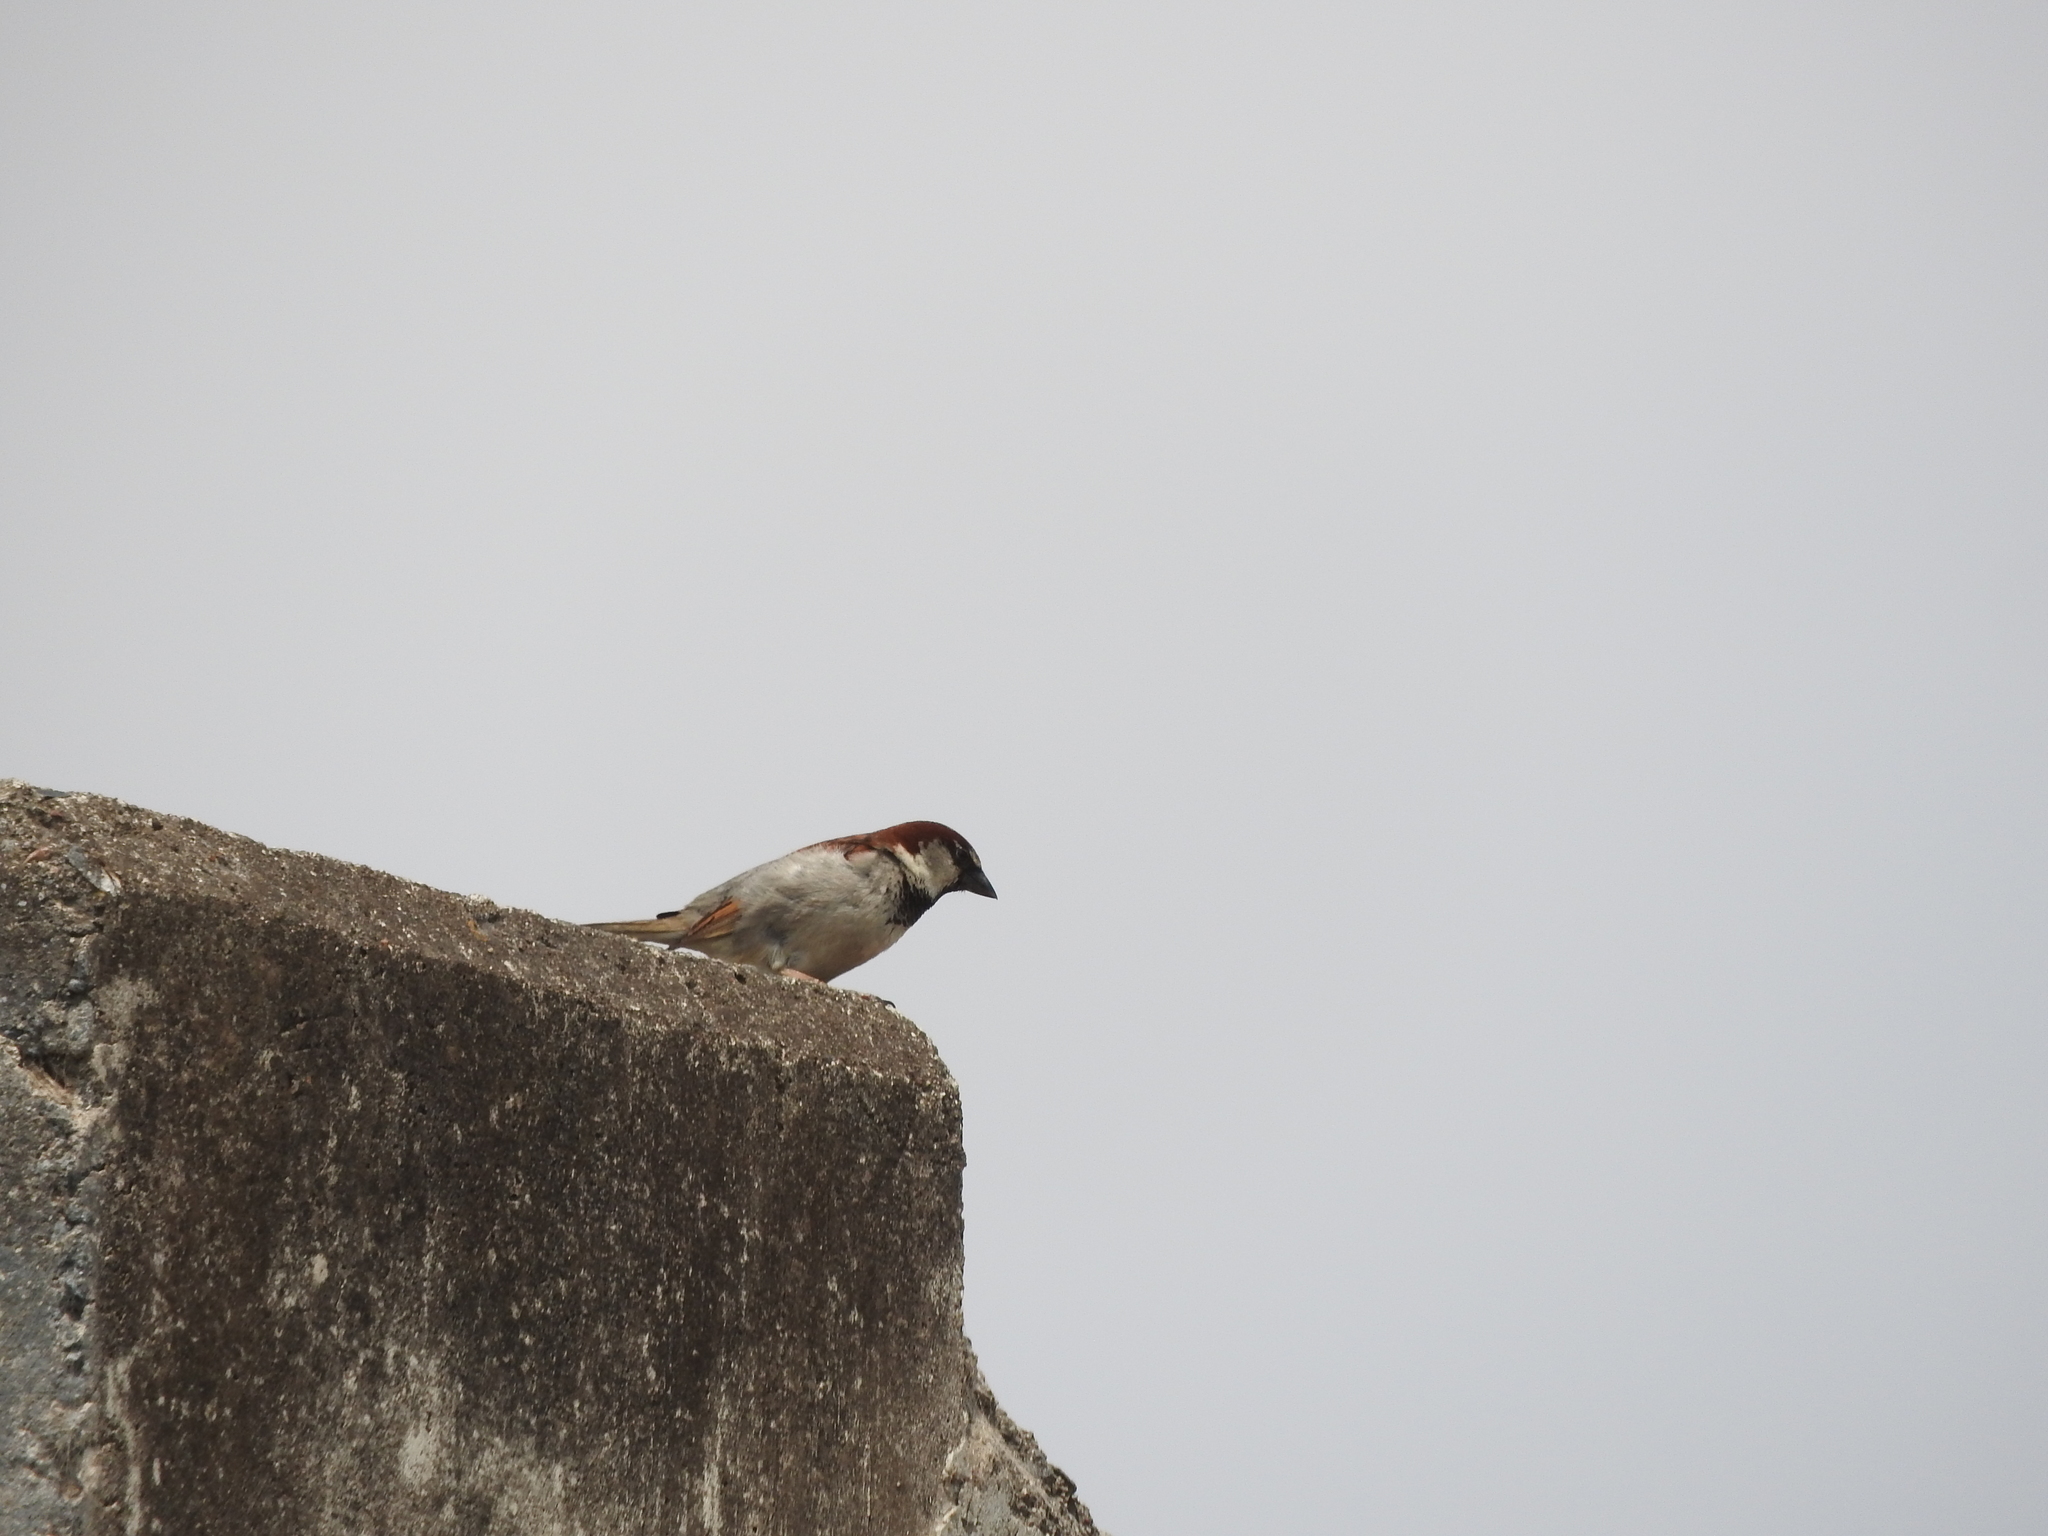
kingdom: Animalia
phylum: Chordata
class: Aves
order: Passeriformes
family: Passeridae
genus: Passer
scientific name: Passer domesticus
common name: House sparrow
